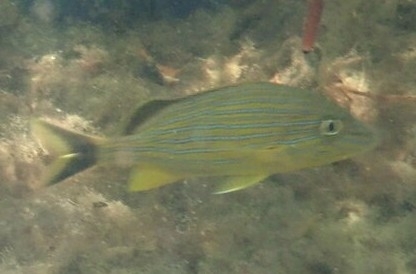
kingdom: Animalia
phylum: Chordata
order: Perciformes
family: Haemulidae
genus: Haemulon
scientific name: Haemulon sciurus
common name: Bluestriped grunt
